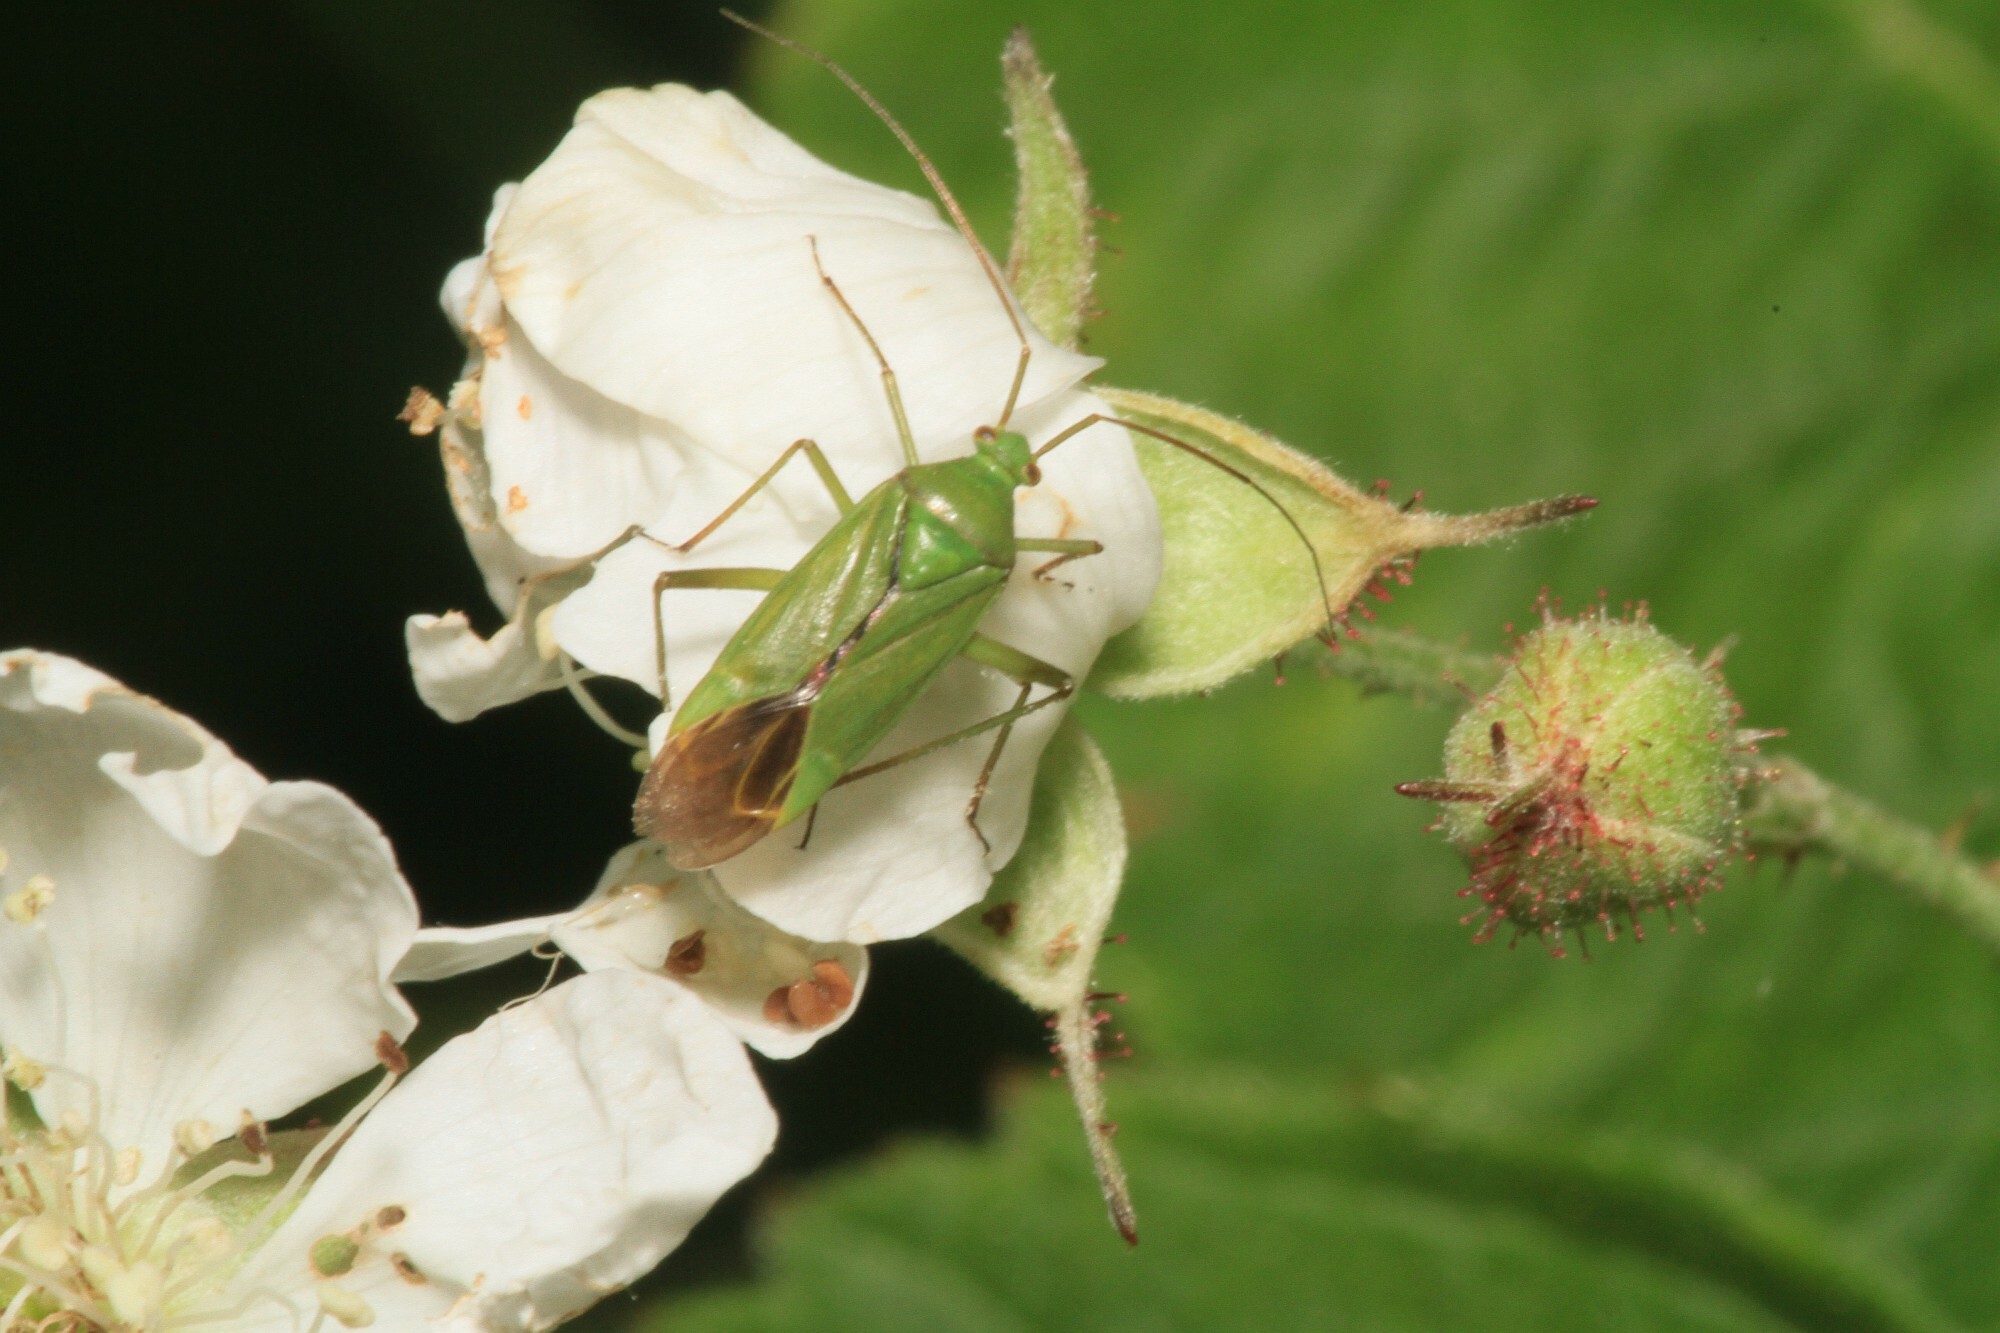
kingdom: Animalia
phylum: Arthropoda
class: Insecta
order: Hemiptera
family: Miridae
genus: Calocoris
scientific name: Calocoris affinis
